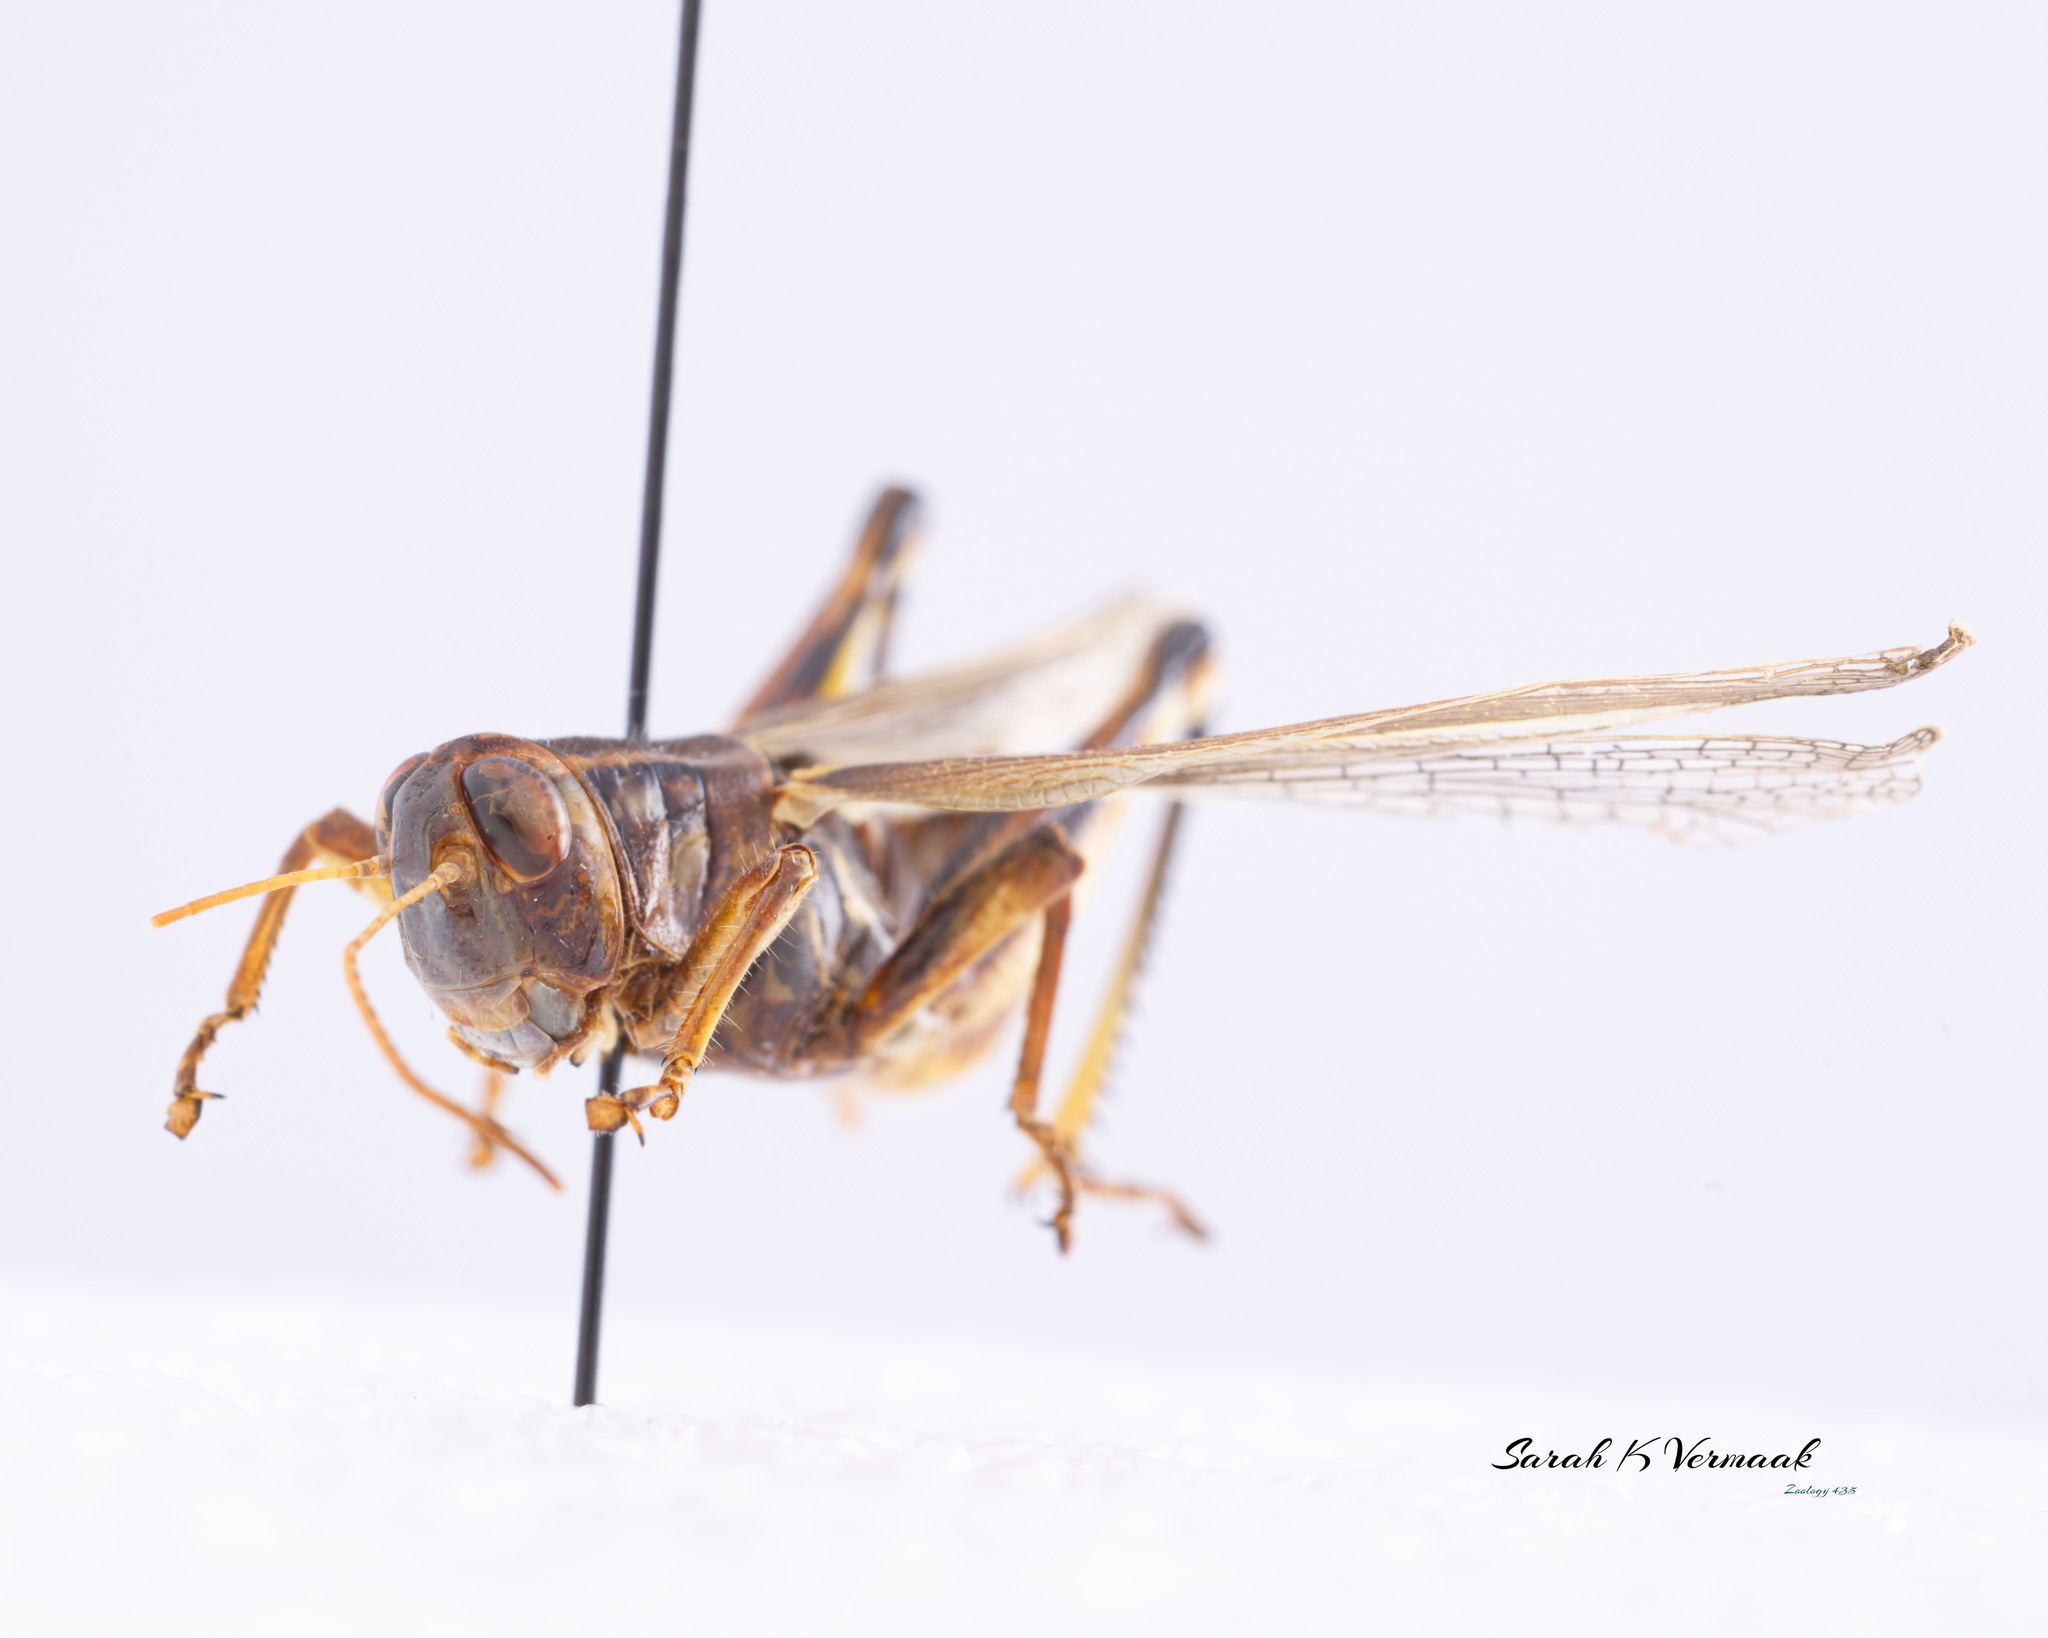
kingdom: Animalia
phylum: Arthropoda
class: Insecta
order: Orthoptera
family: Acrididae
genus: Melanoplus
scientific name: Melanoplus bivittatus
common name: Two-striped grasshopper
